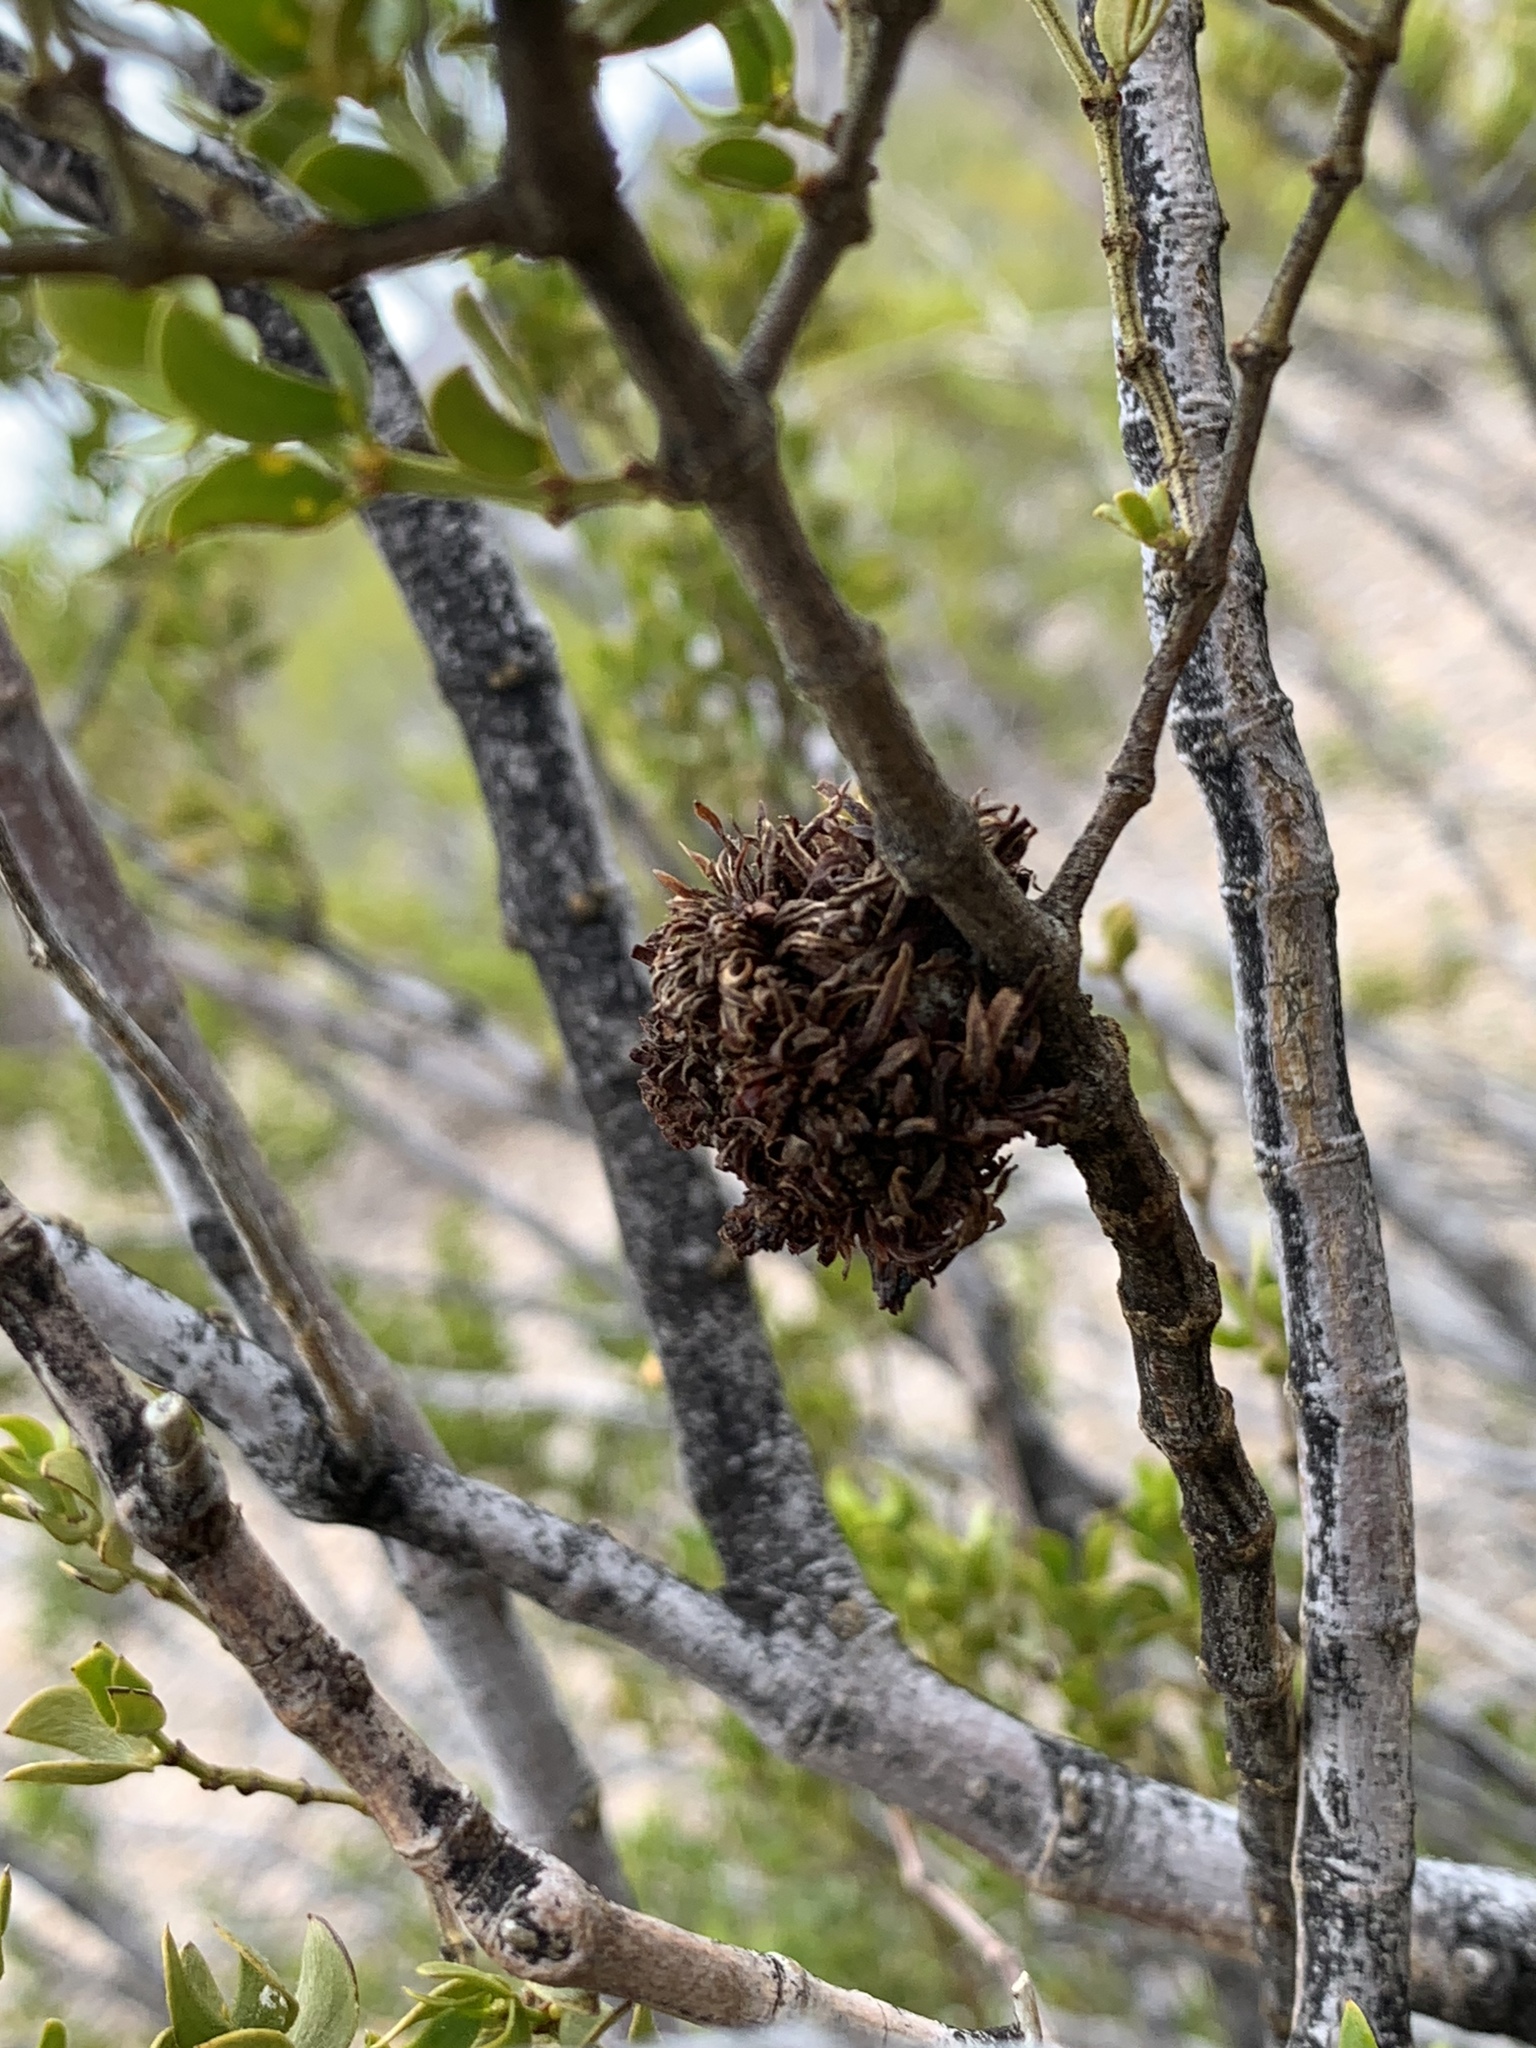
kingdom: Animalia
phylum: Arthropoda
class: Insecta
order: Diptera
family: Cecidomyiidae
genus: Asphondylia
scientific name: Asphondylia auripila
